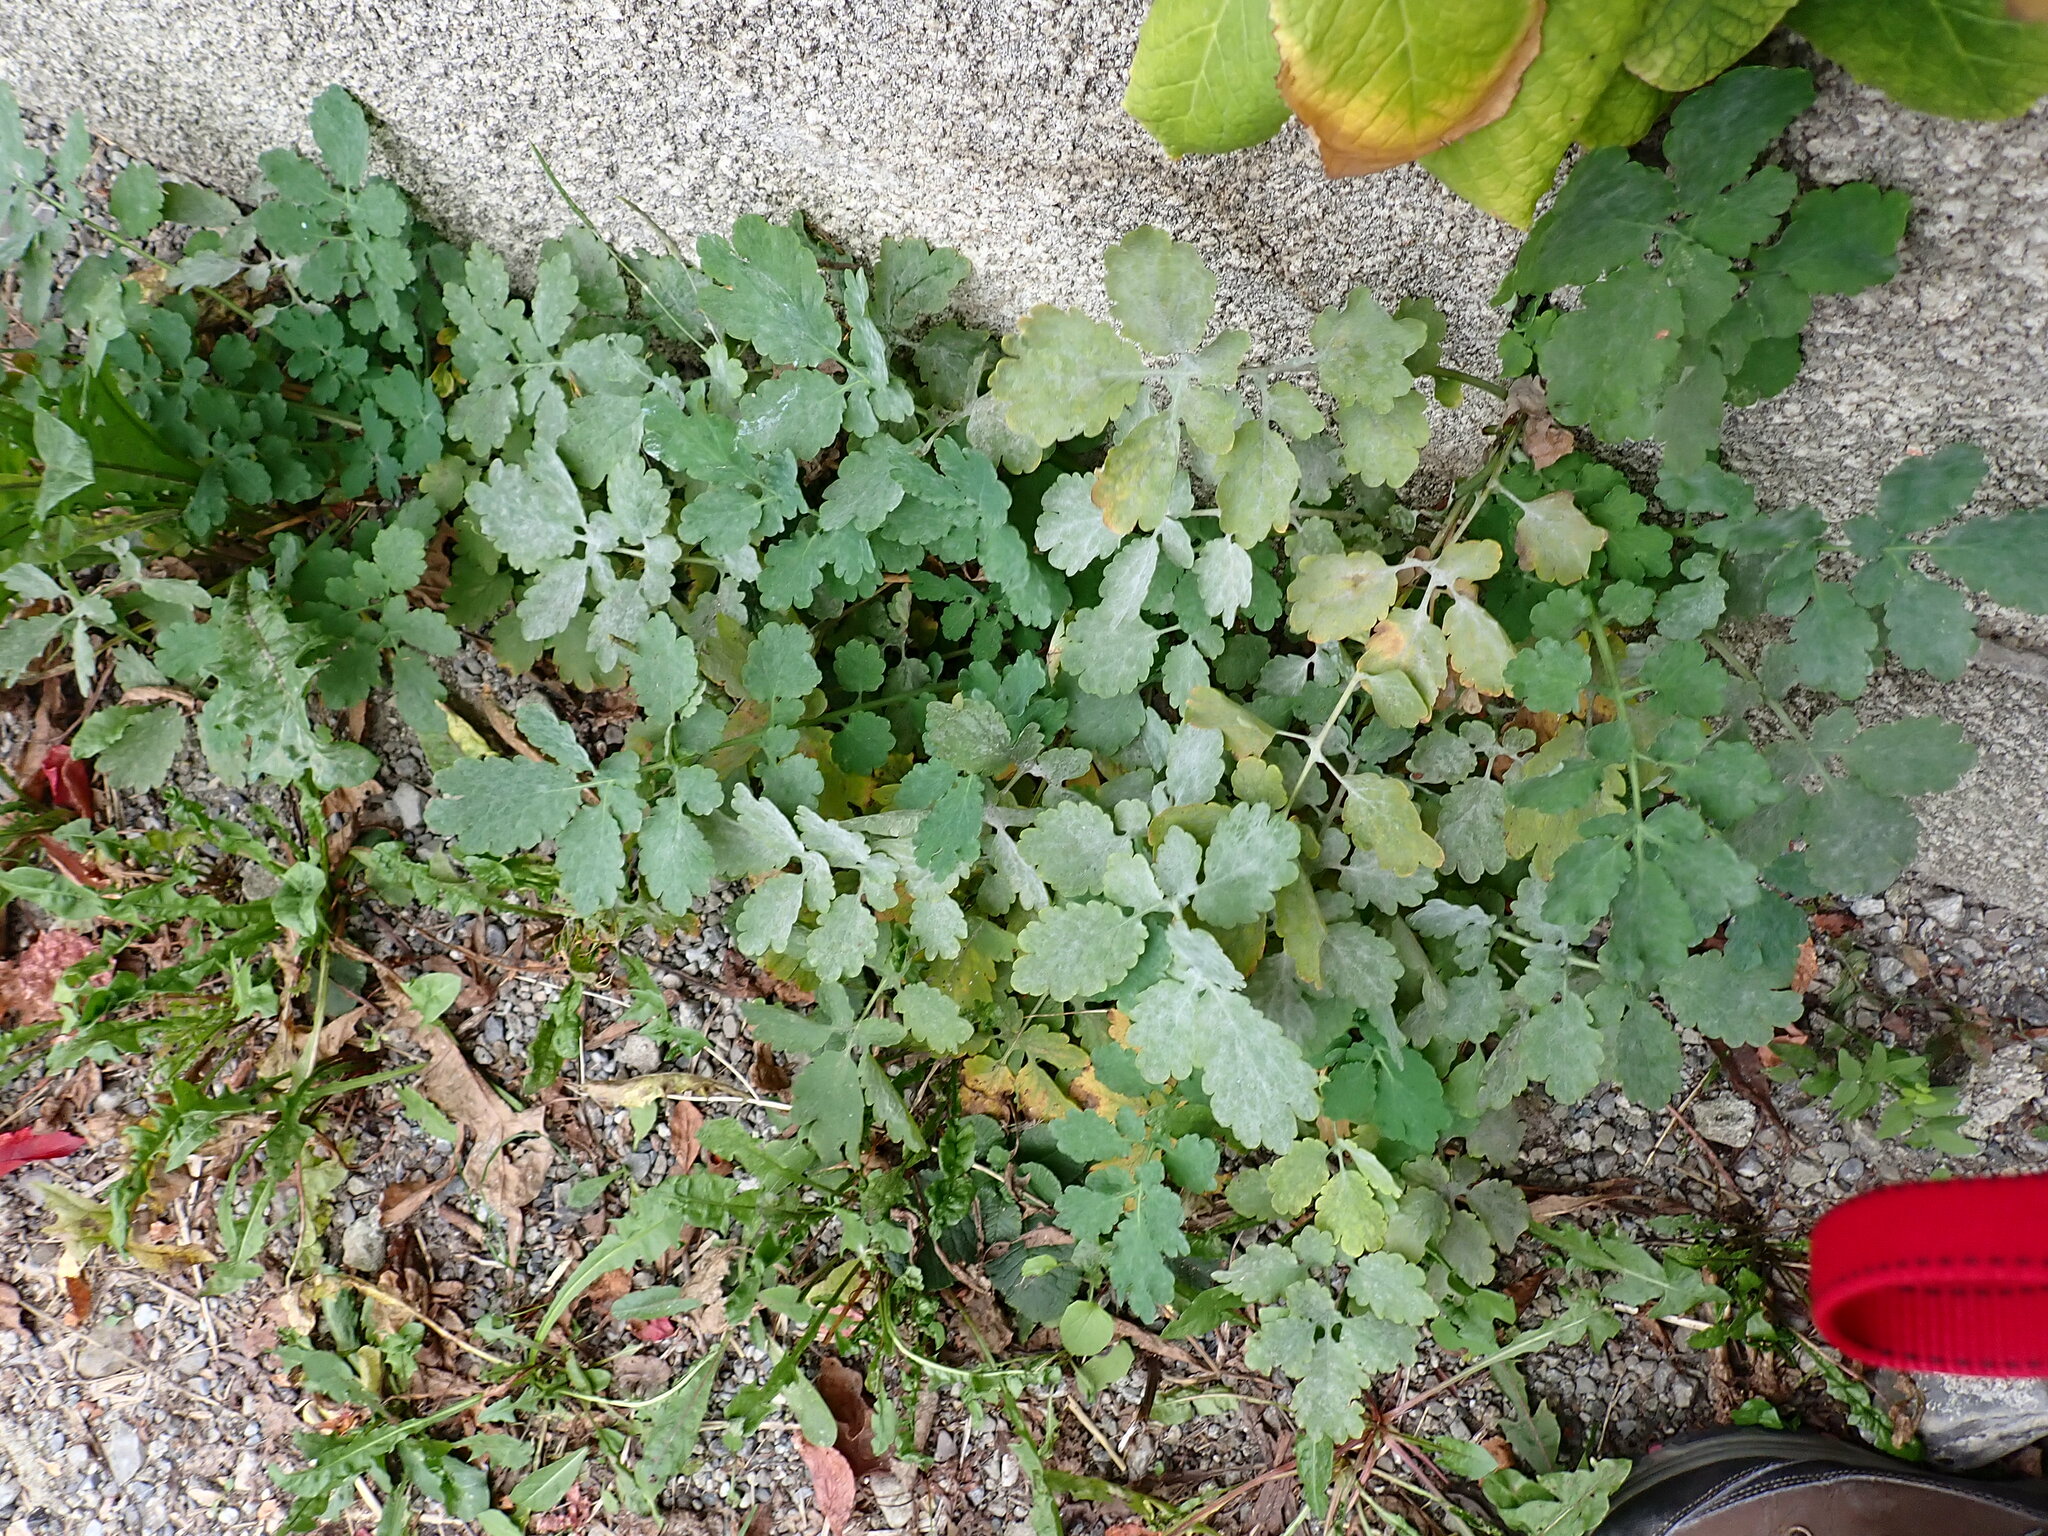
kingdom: Plantae
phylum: Tracheophyta
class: Magnoliopsida
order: Ranunculales
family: Papaveraceae
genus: Chelidonium
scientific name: Chelidonium majus
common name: Greater celandine
